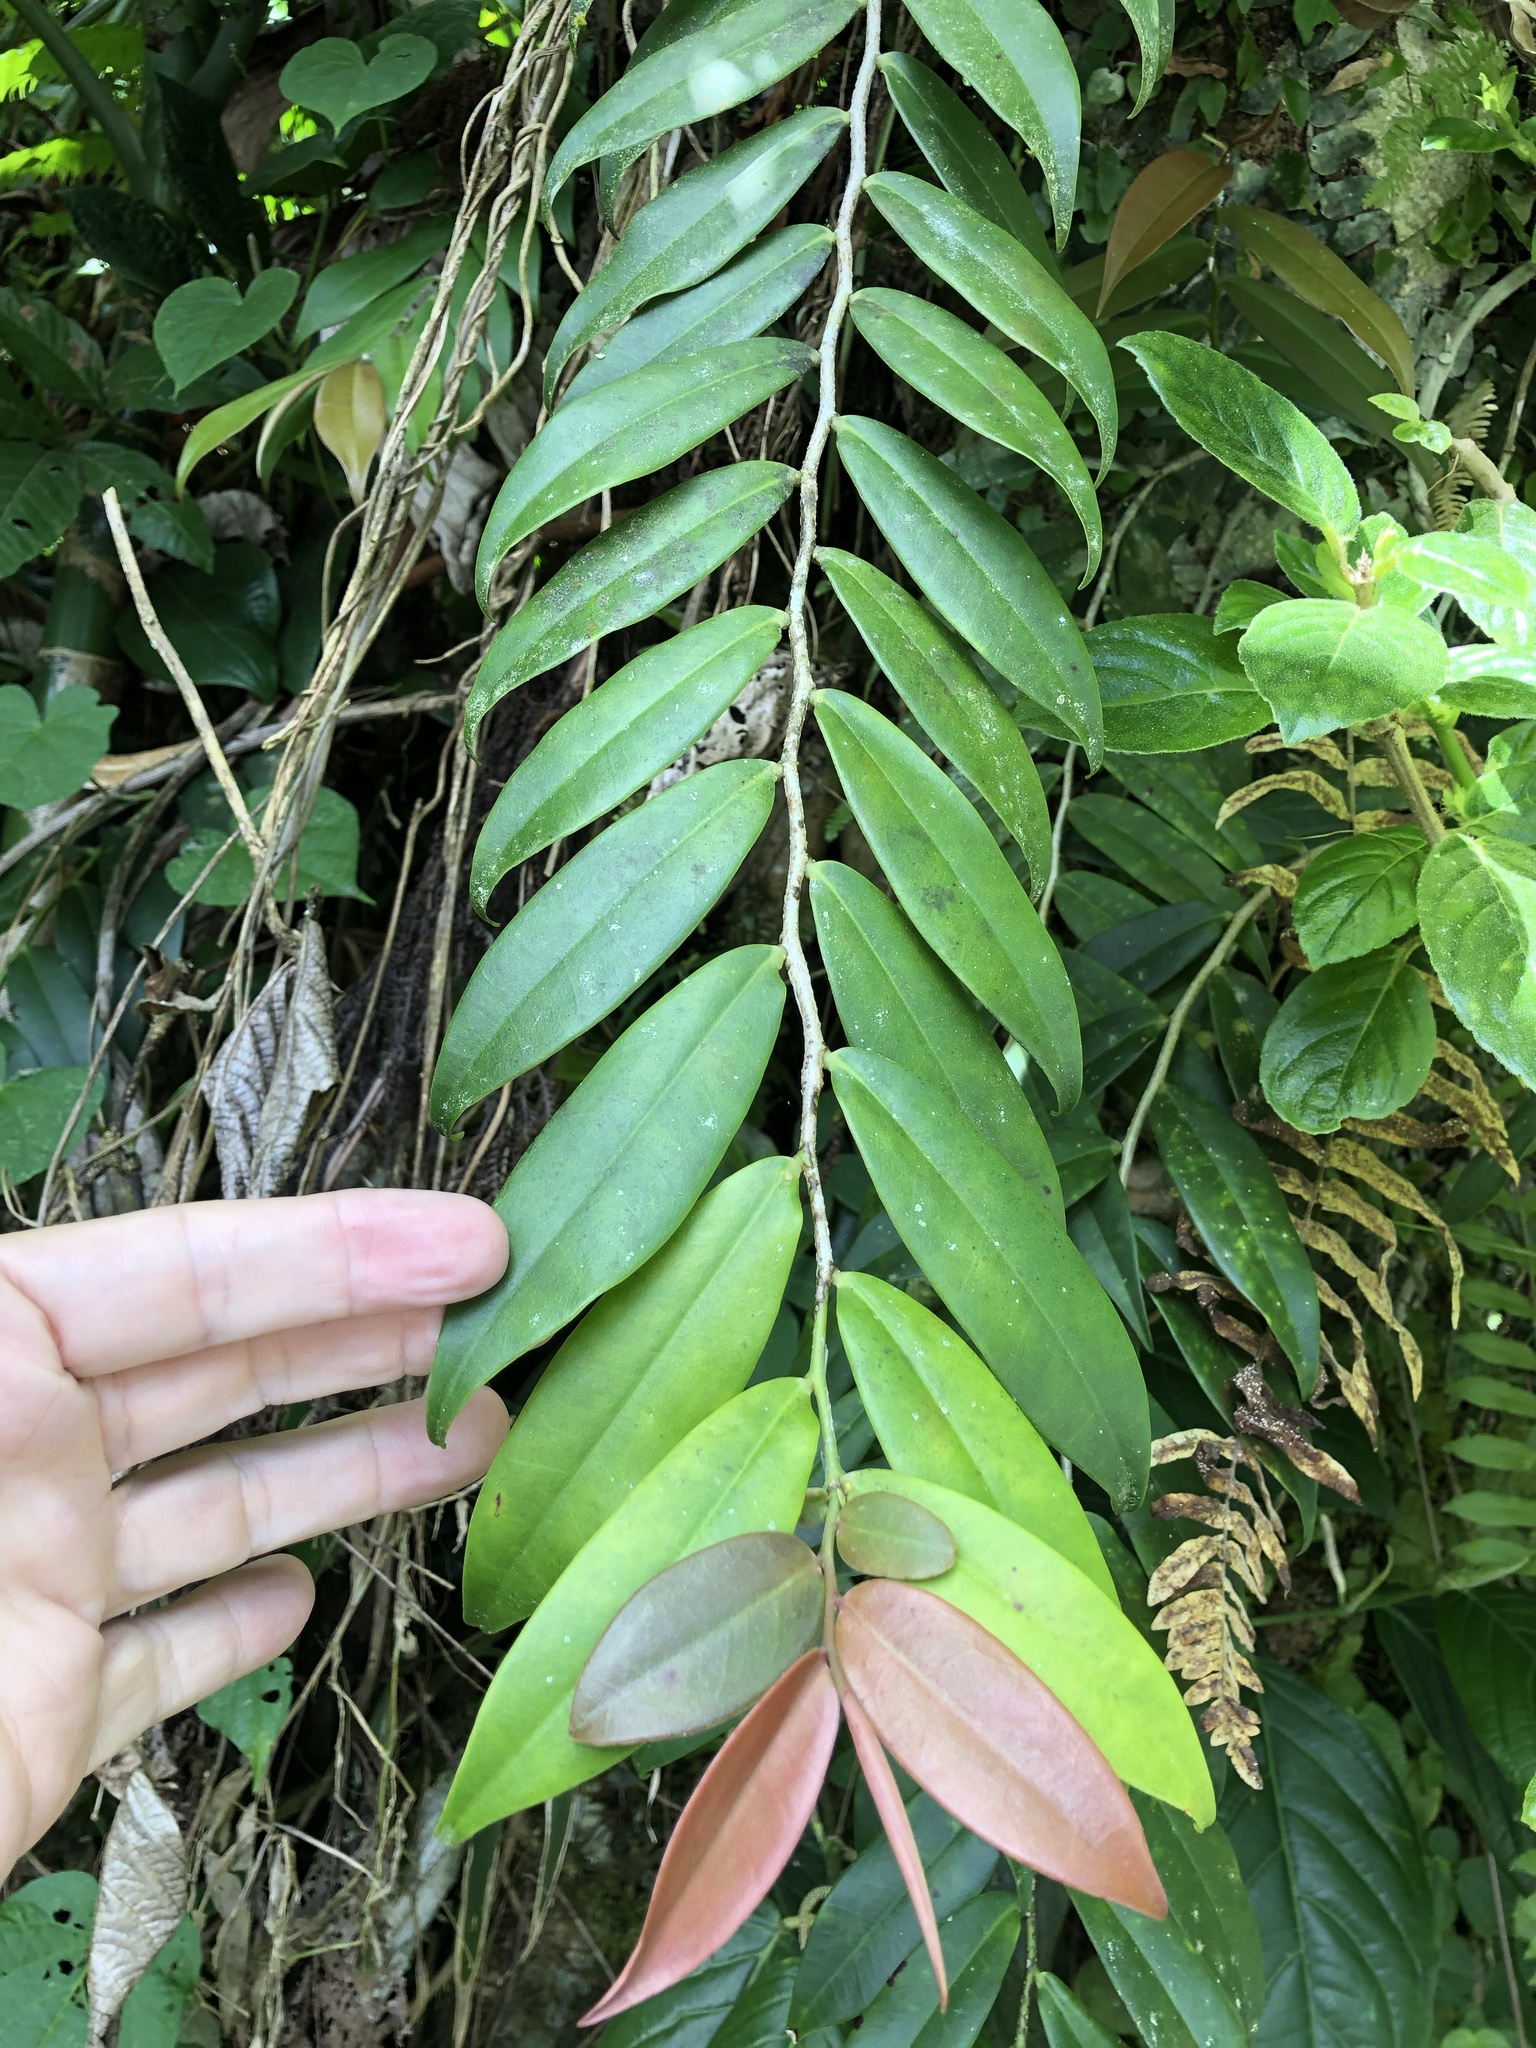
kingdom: Plantae
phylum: Tracheophyta
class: Magnoliopsida
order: Ericales
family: Marcgraviaceae
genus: Marcgravia
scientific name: Marcgravia rectiflora
